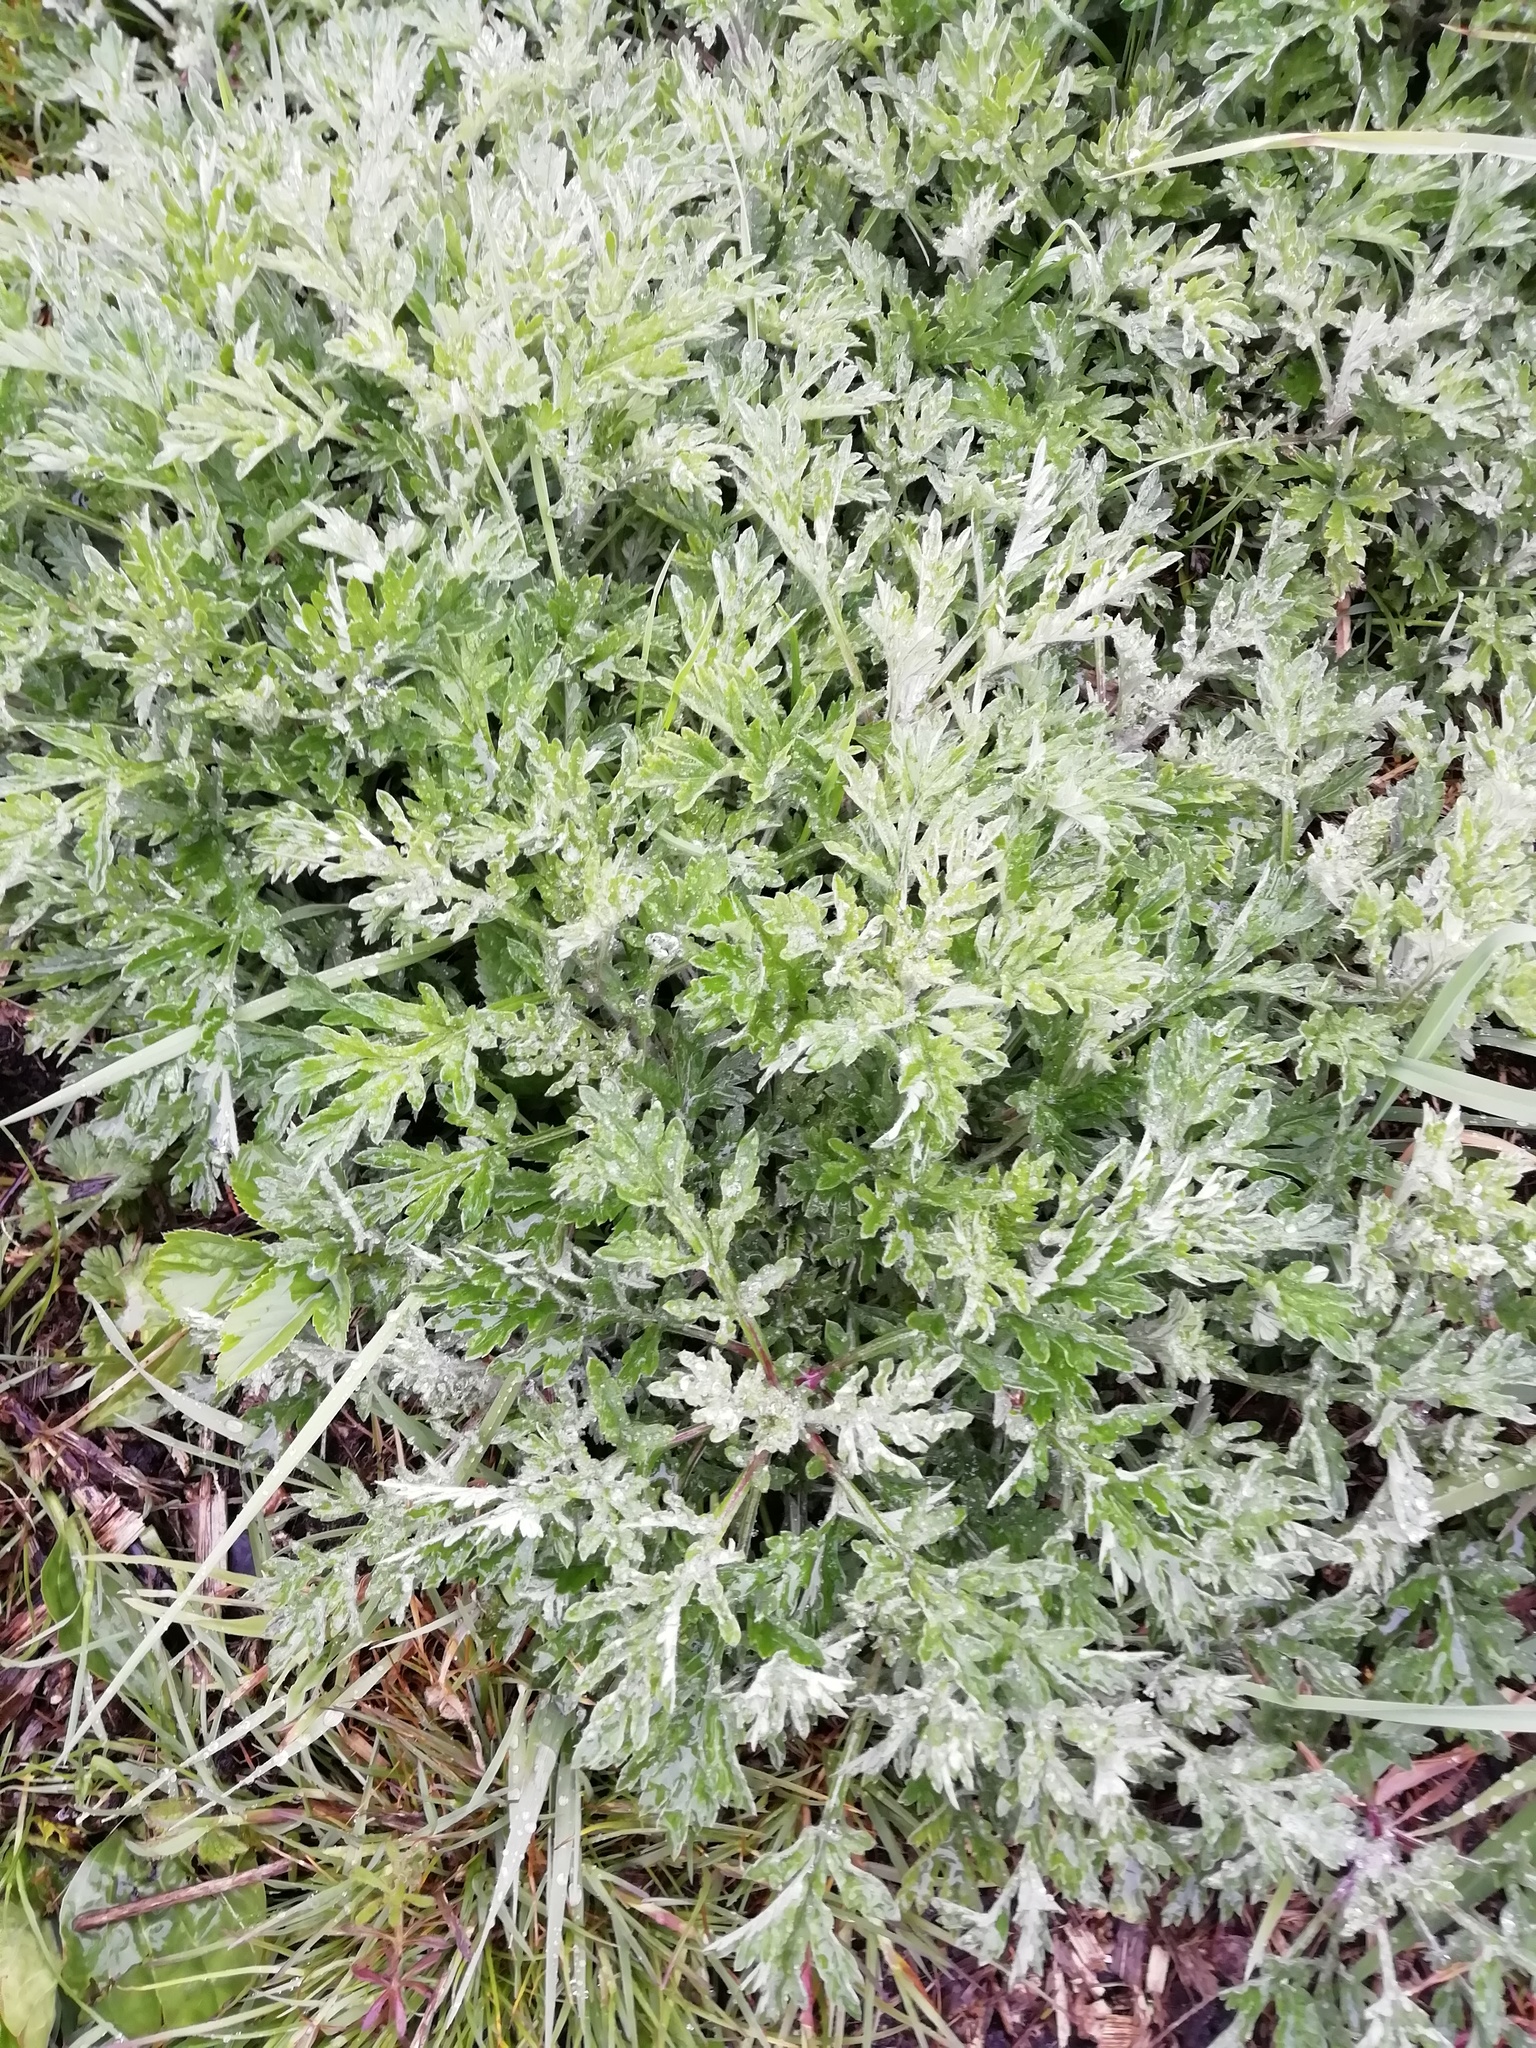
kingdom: Plantae
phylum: Tracheophyta
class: Magnoliopsida
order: Asterales
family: Asteraceae
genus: Artemisia
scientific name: Artemisia vulgaris
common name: Mugwort
